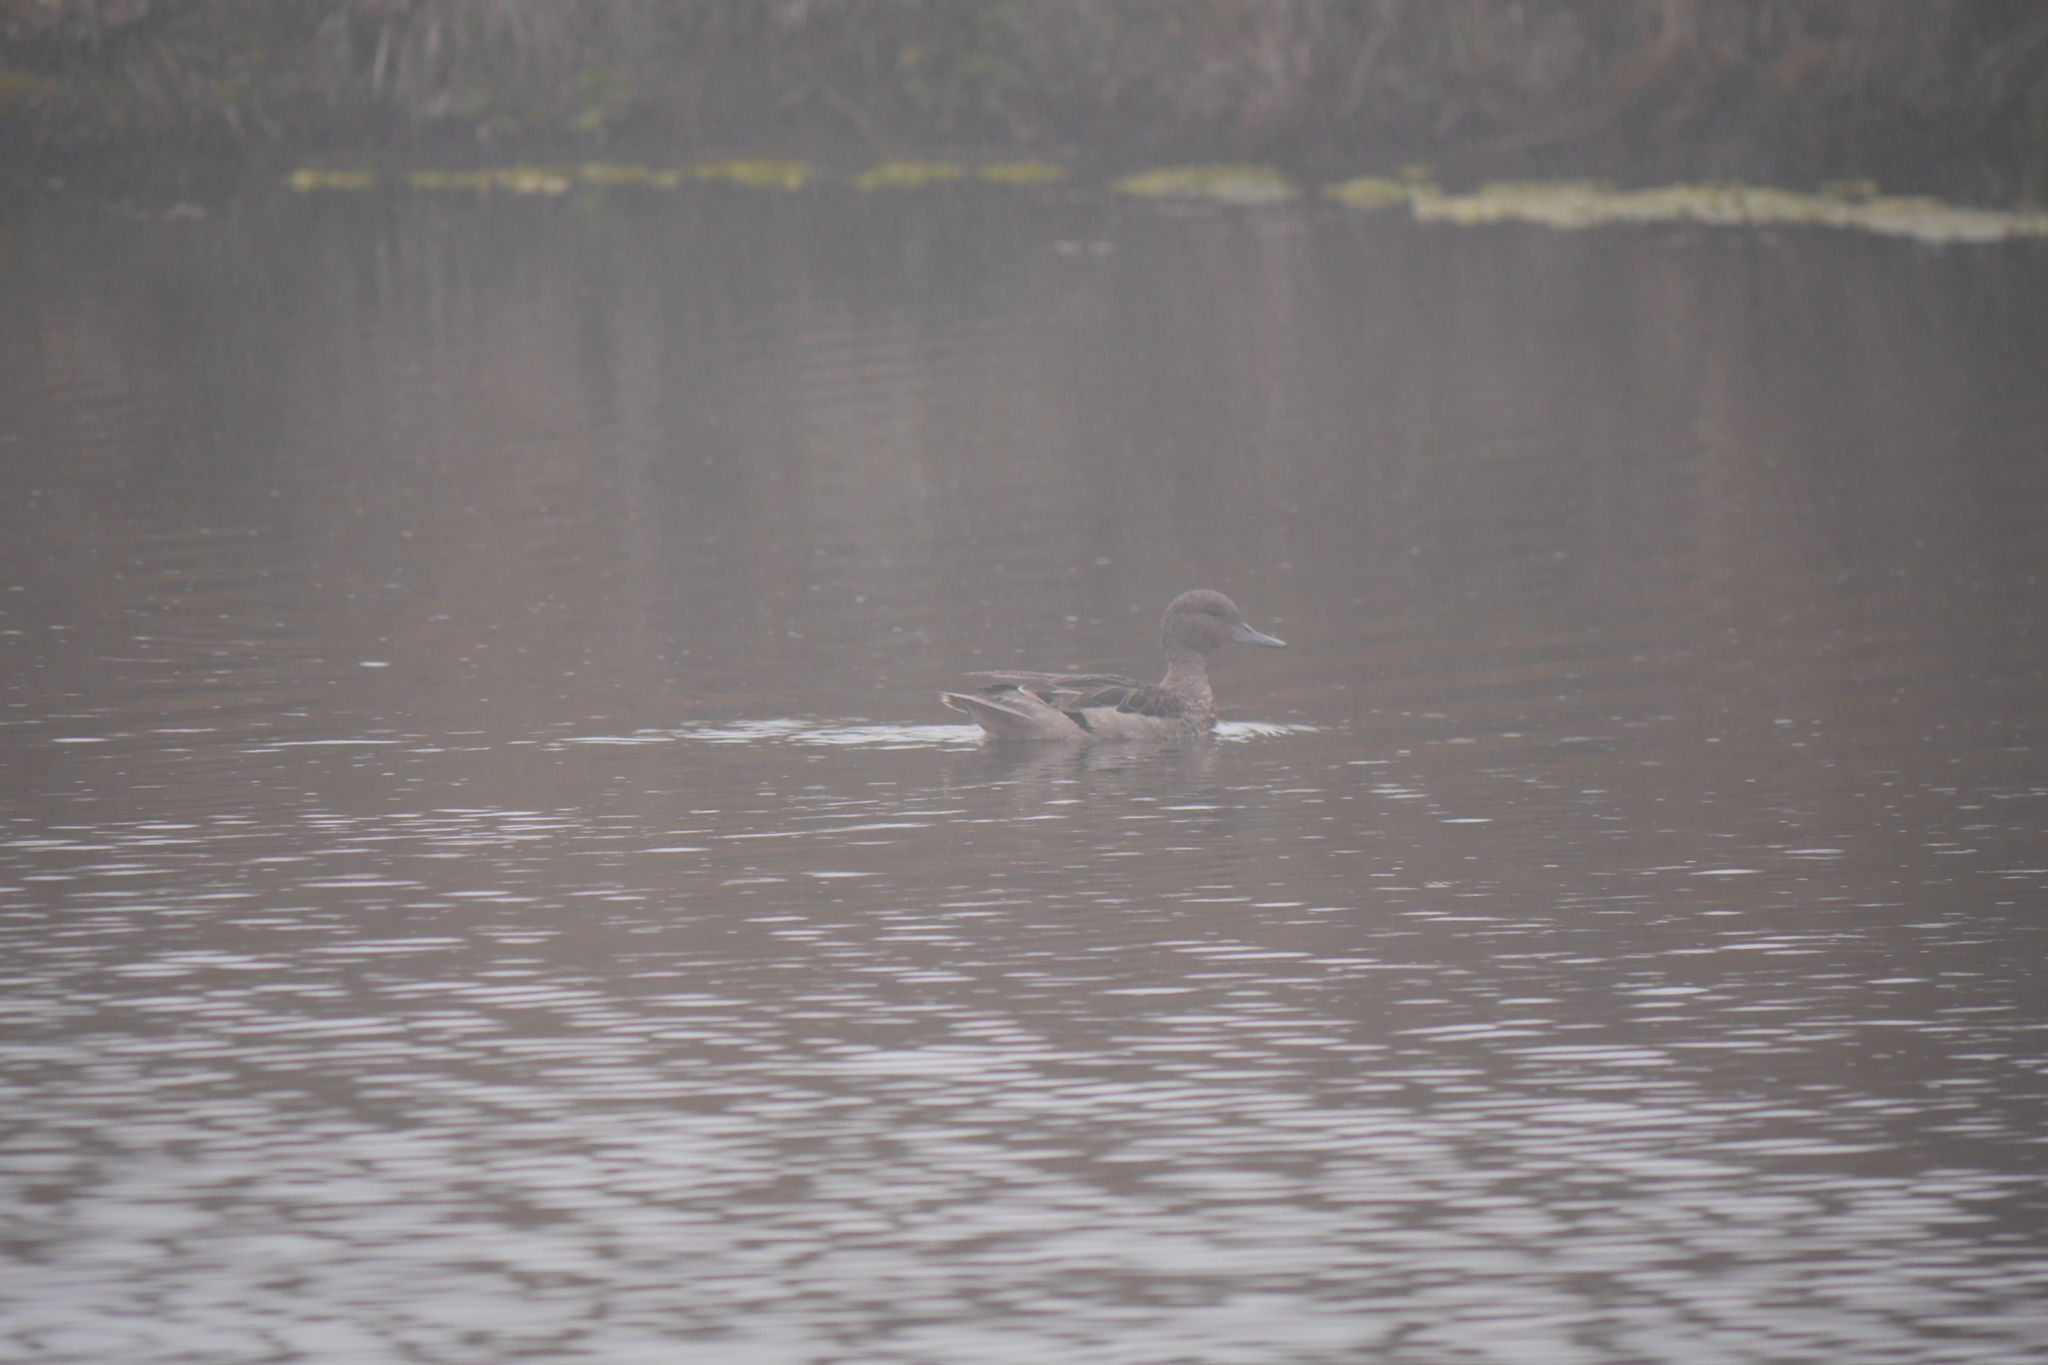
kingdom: Animalia
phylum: Chordata
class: Aves
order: Anseriformes
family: Anatidae
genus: Anas
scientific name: Anas andium
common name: Andean teal
